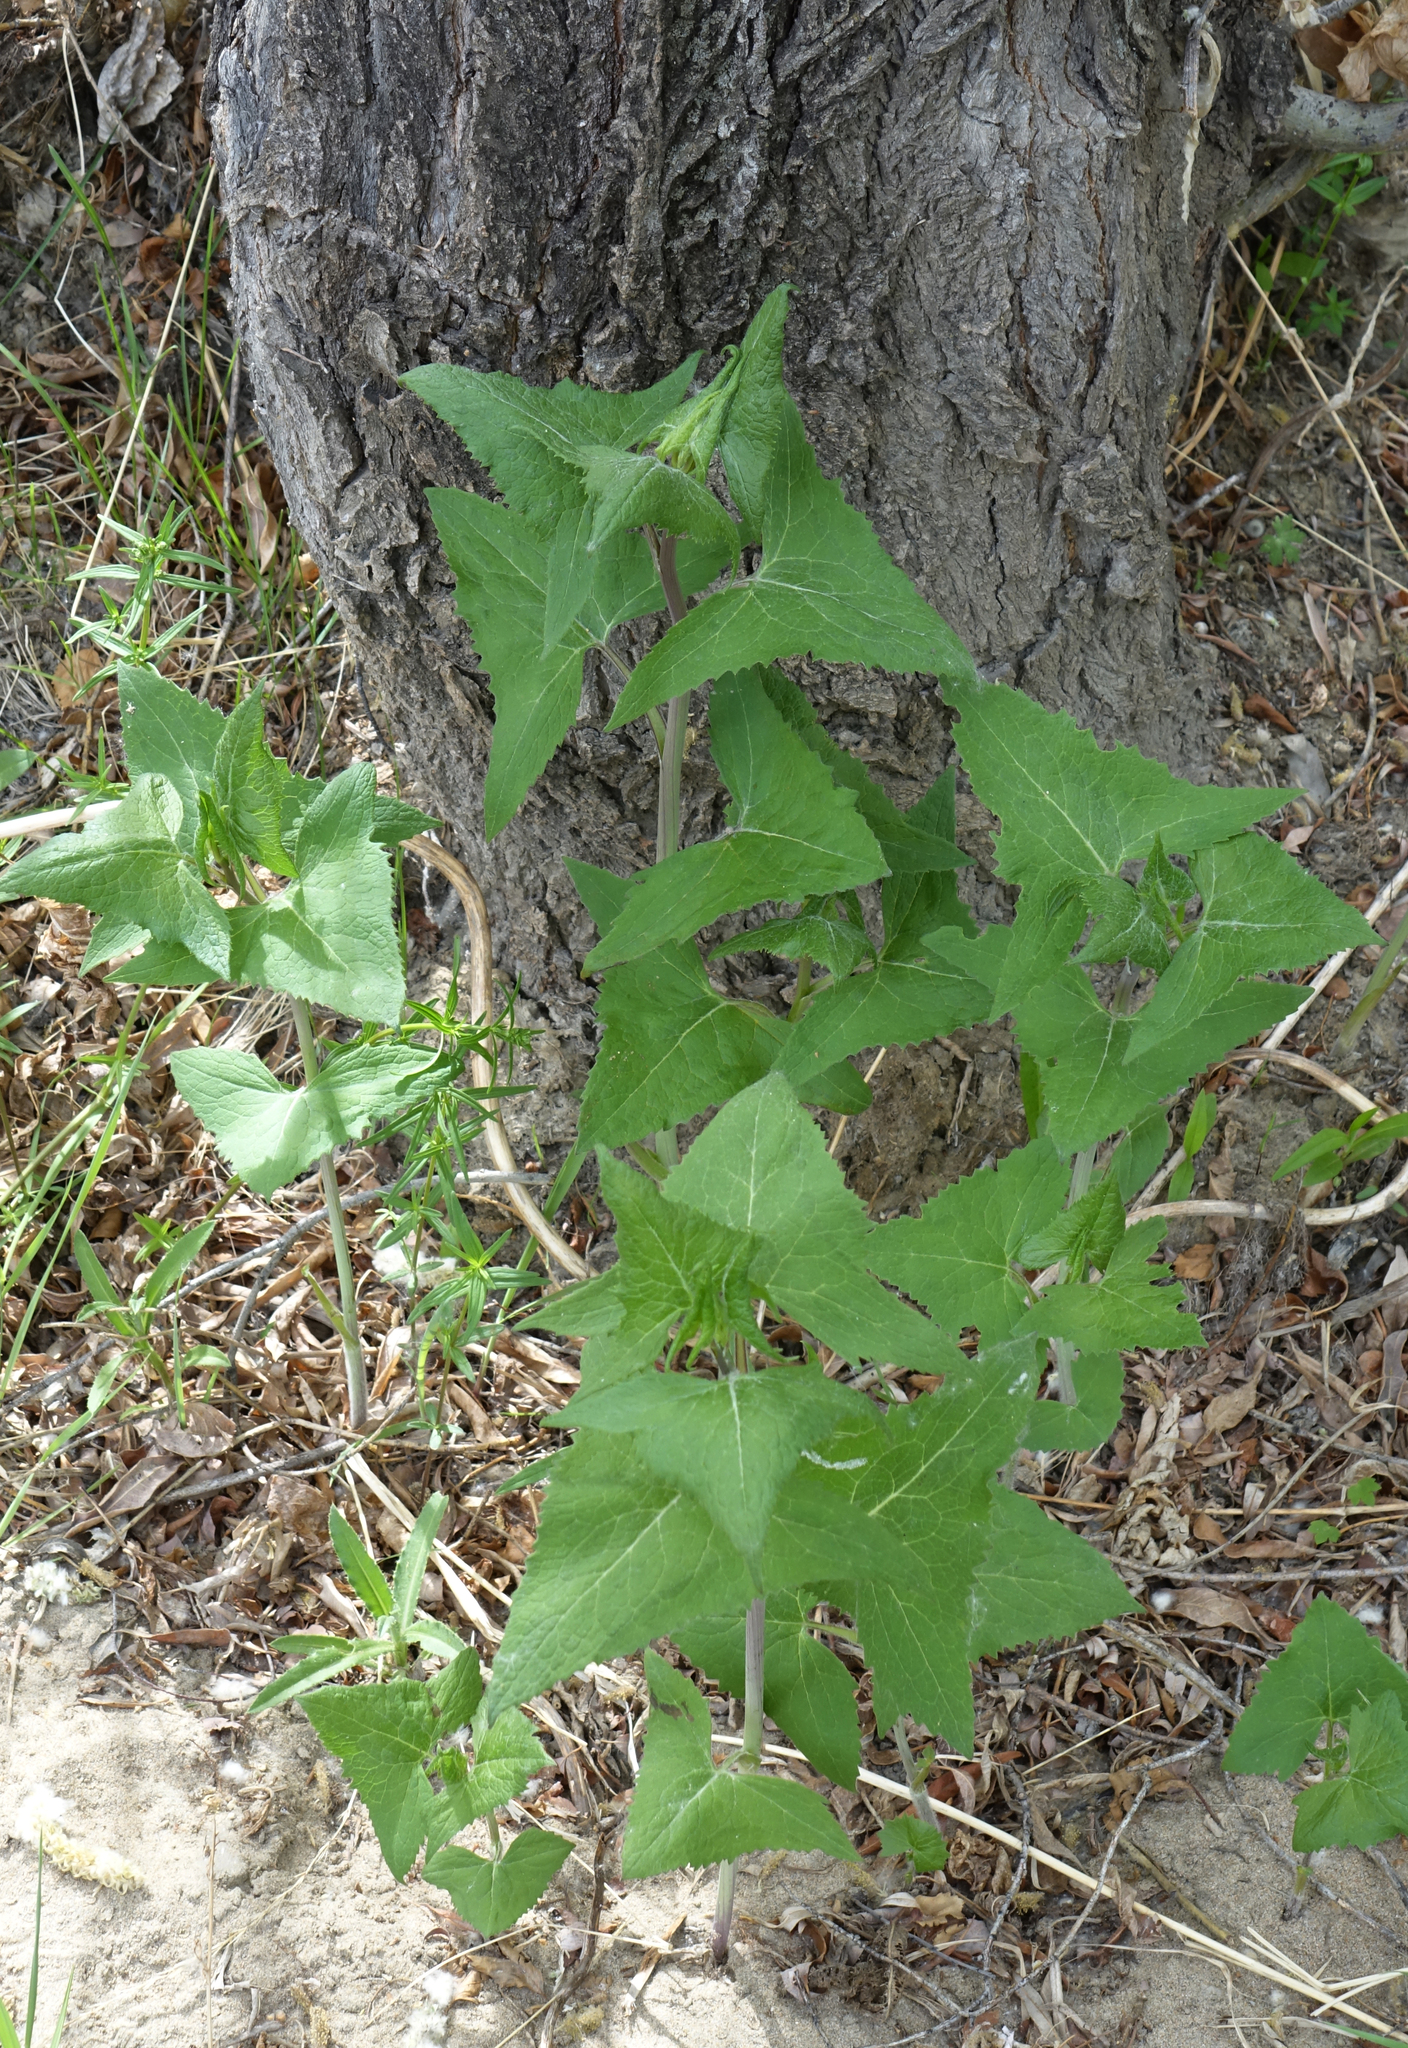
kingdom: Plantae
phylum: Tracheophyta
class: Magnoliopsida
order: Asterales
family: Asteraceae
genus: Parasenecio
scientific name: Parasenecio hastatus
